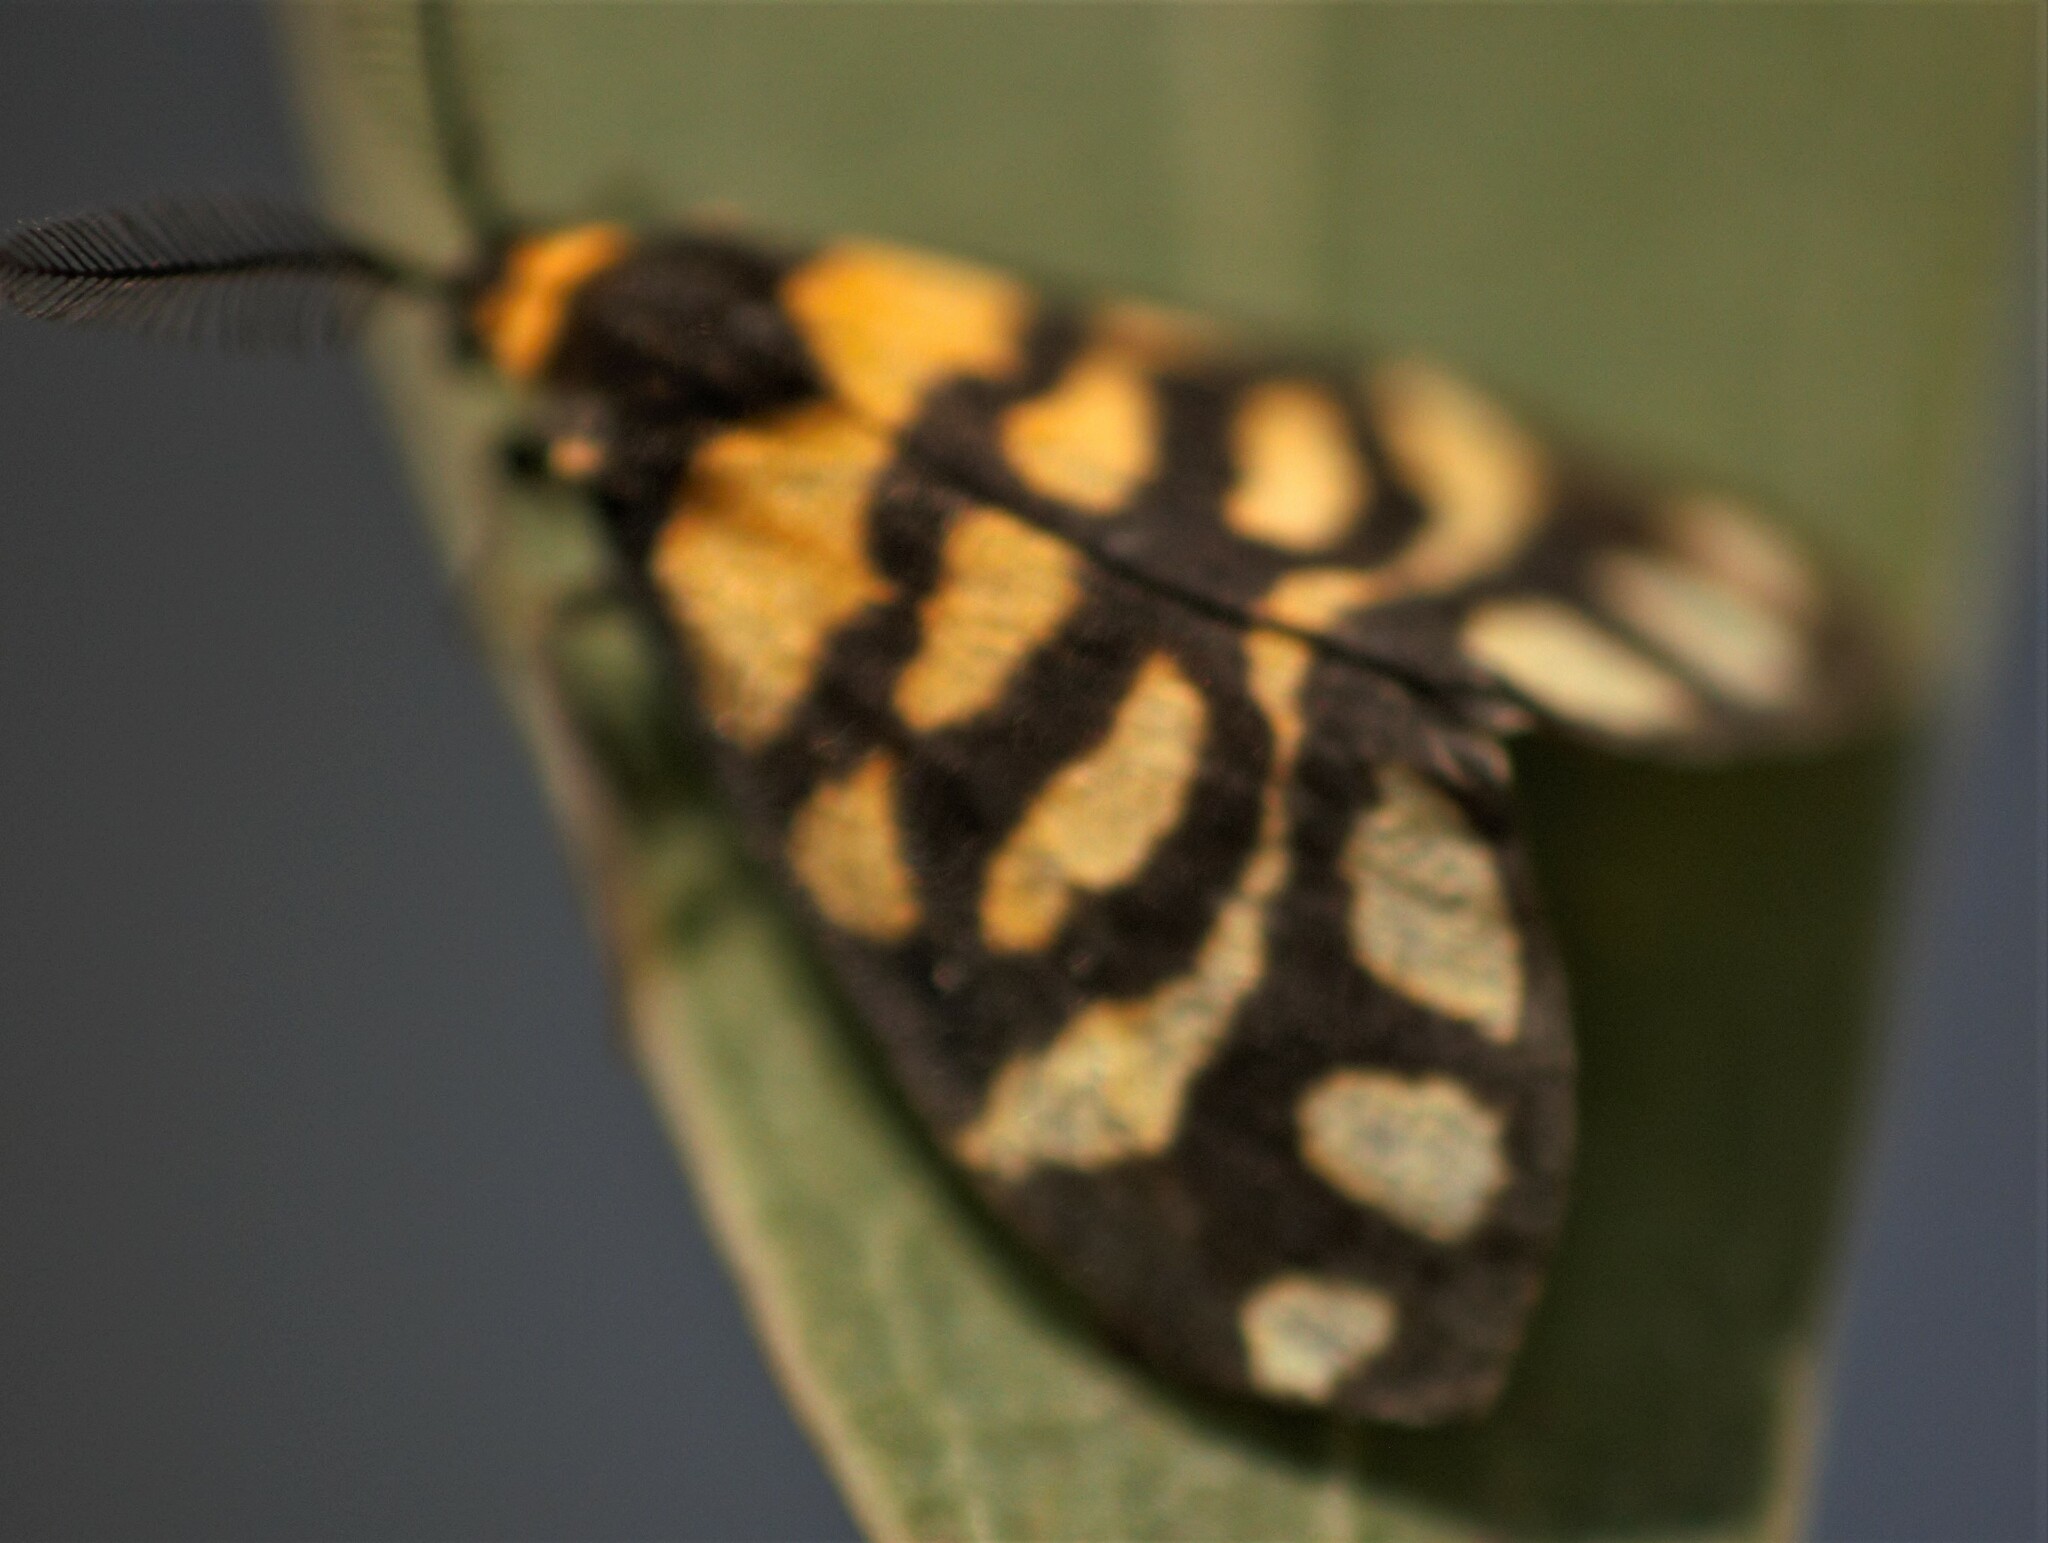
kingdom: Animalia
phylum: Arthropoda
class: Insecta
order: Lepidoptera
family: Erebidae
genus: Asura
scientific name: Asura lydia
